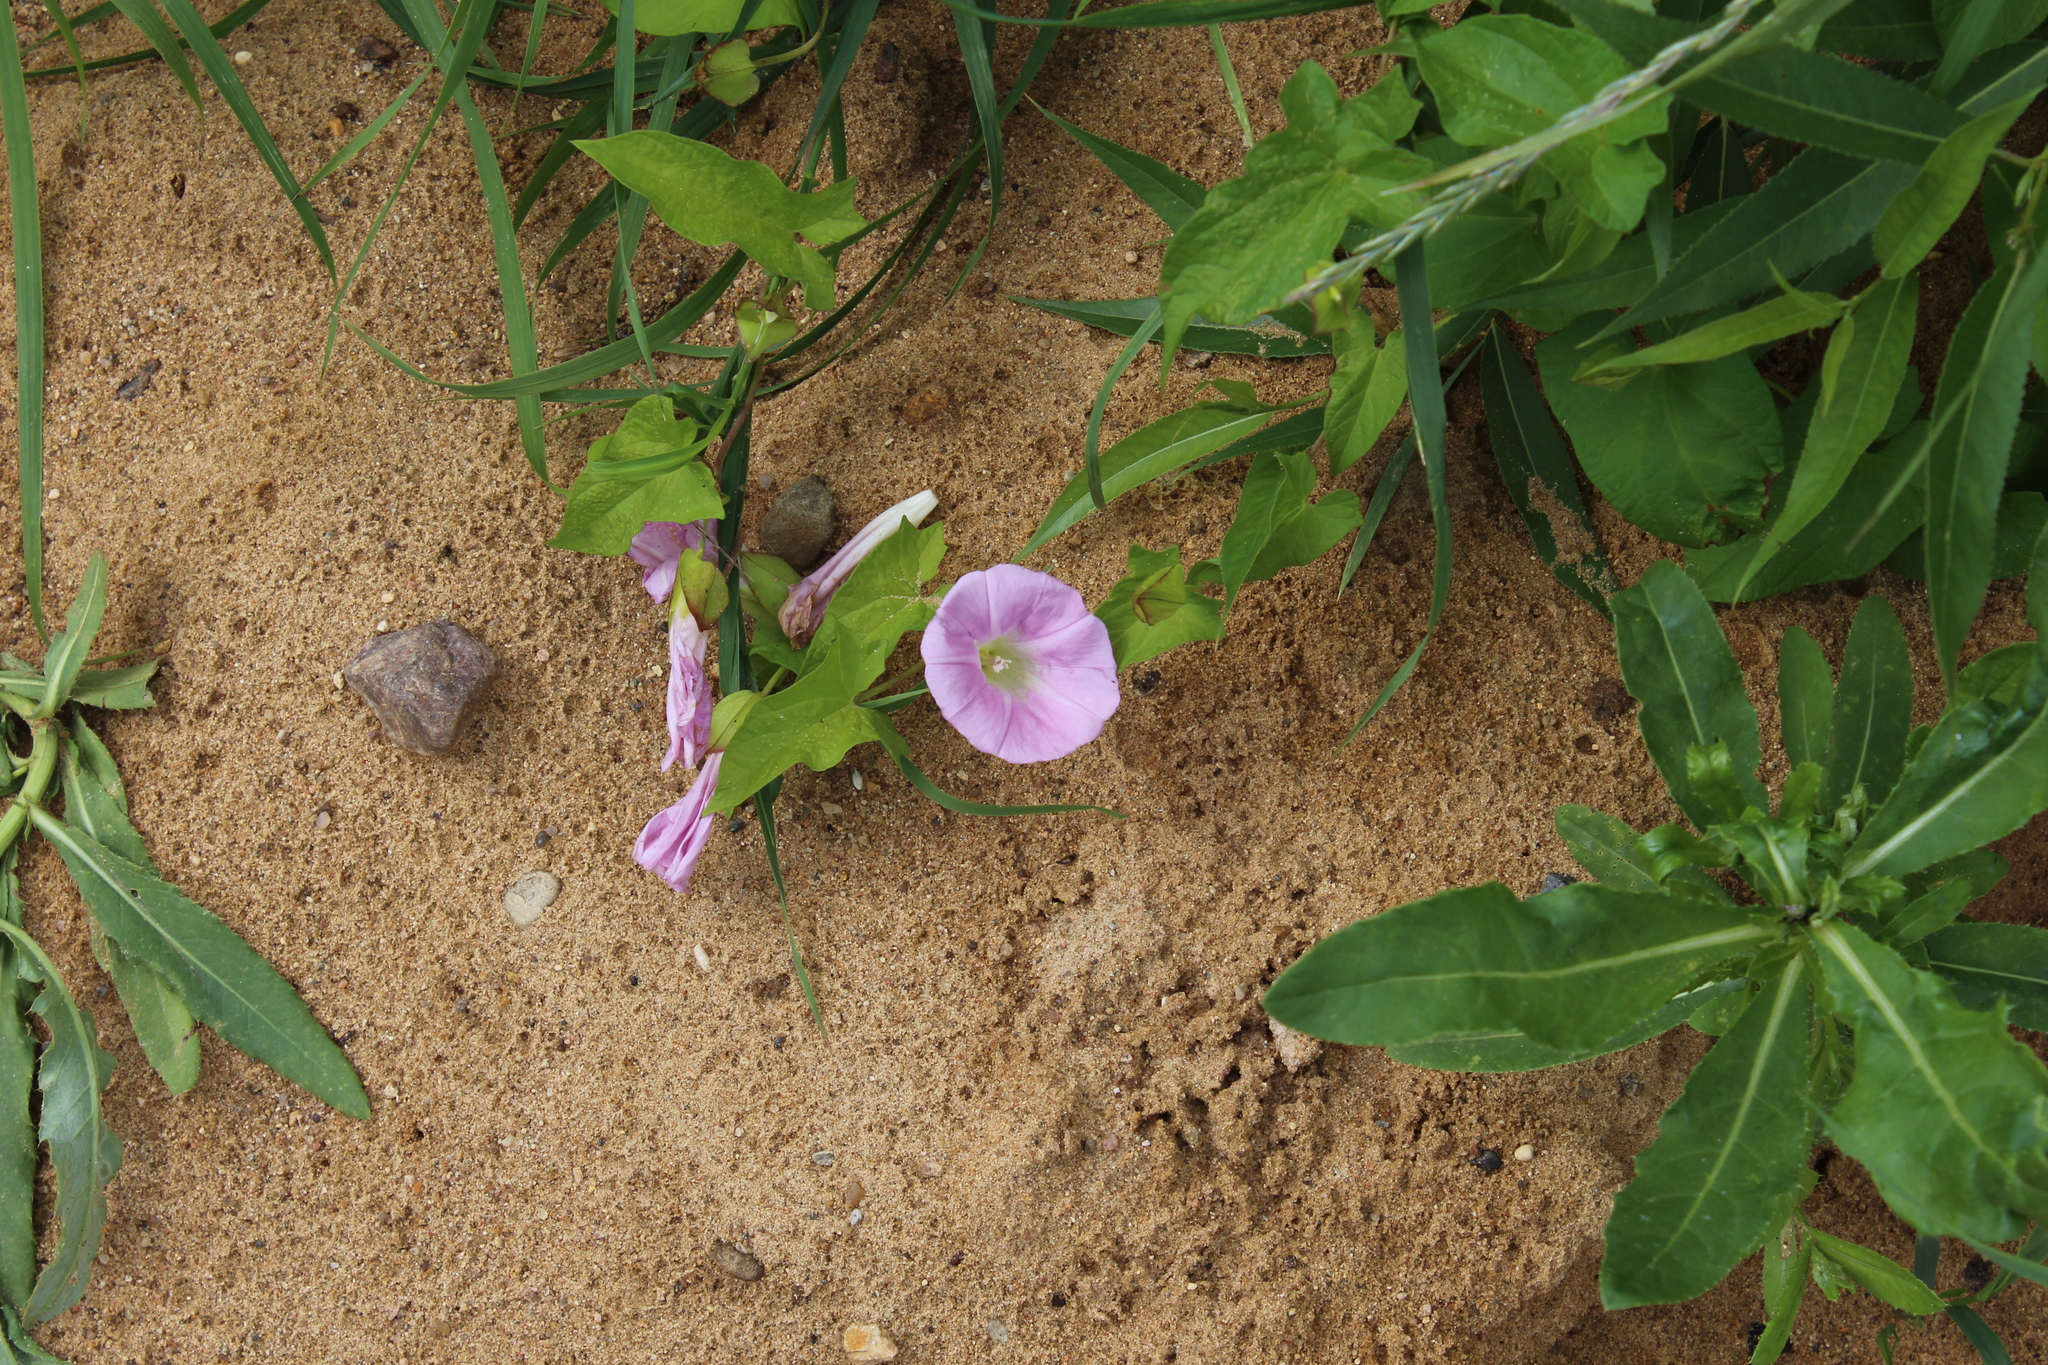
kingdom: Plantae
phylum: Tracheophyta
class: Magnoliopsida
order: Solanales
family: Convolvulaceae
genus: Calystegia
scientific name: Calystegia sepium
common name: Hedge bindweed
